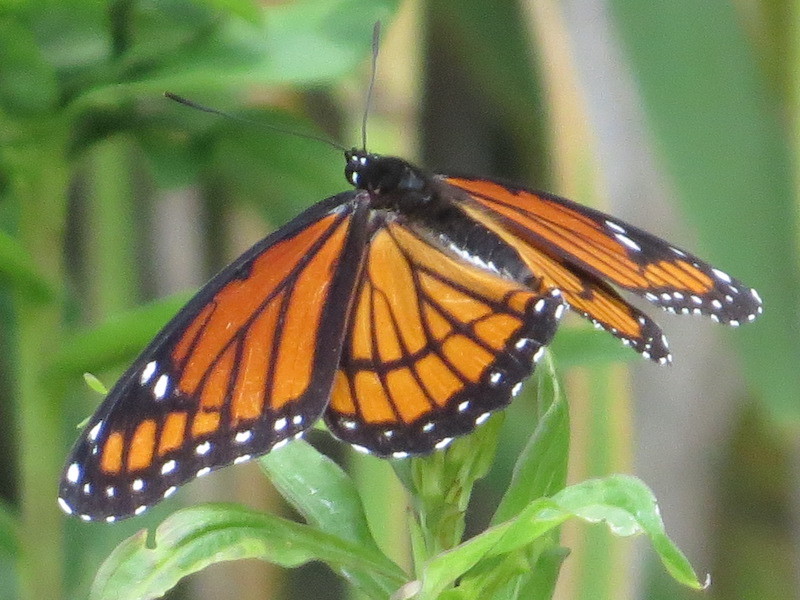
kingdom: Animalia
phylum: Arthropoda
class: Insecta
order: Lepidoptera
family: Nymphalidae
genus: Limenitis
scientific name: Limenitis archippus
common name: Viceroy
